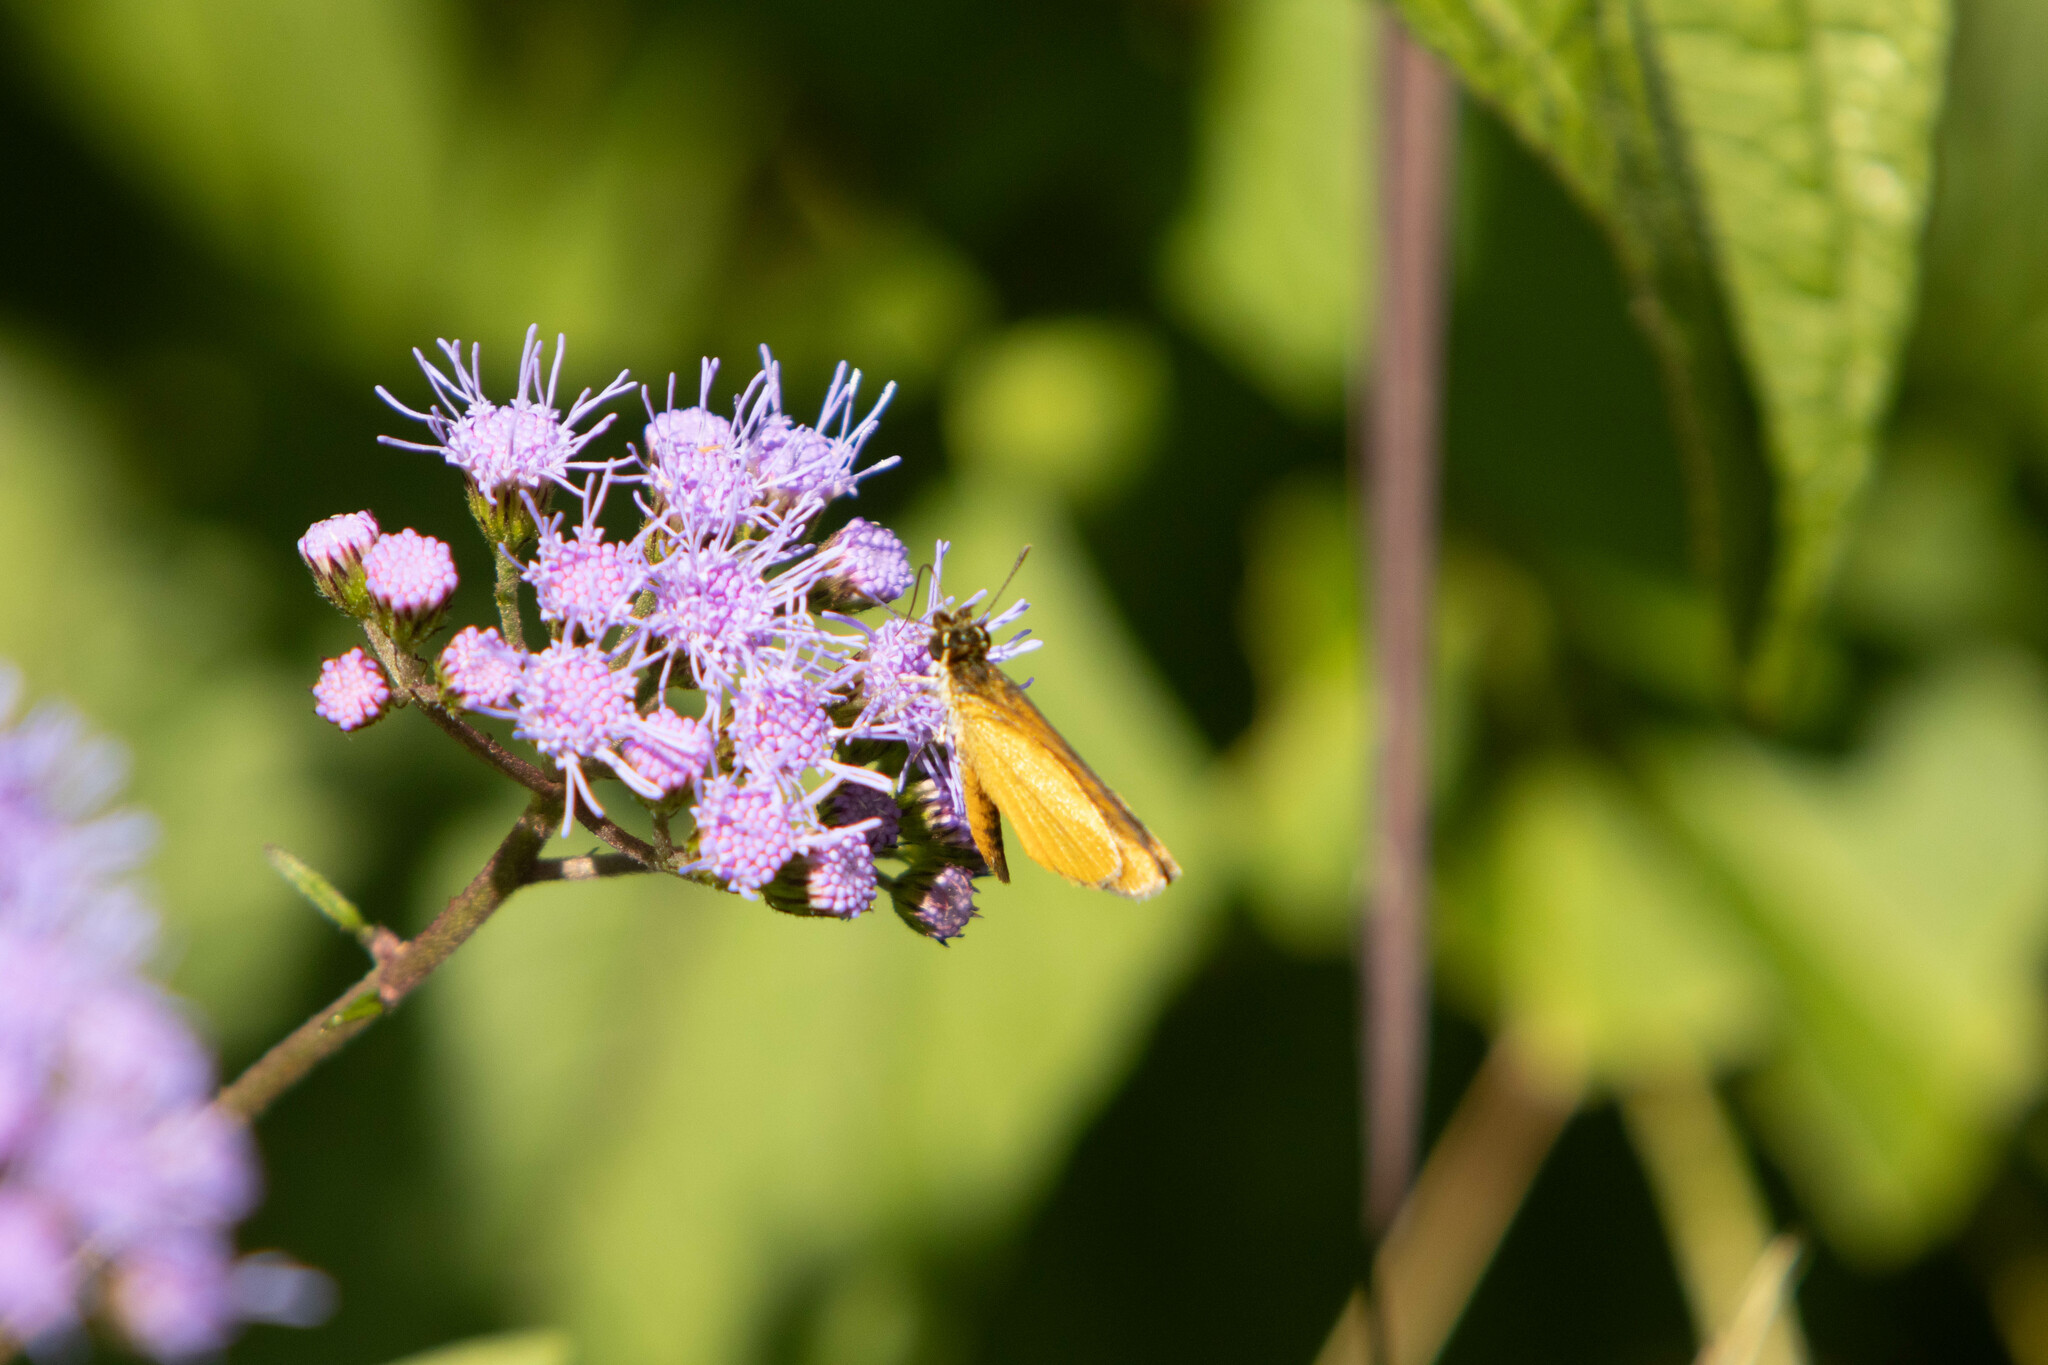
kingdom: Animalia
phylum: Arthropoda
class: Insecta
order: Lepidoptera
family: Hesperiidae
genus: Ancyloxypha
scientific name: Ancyloxypha numitor
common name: Least skipper
